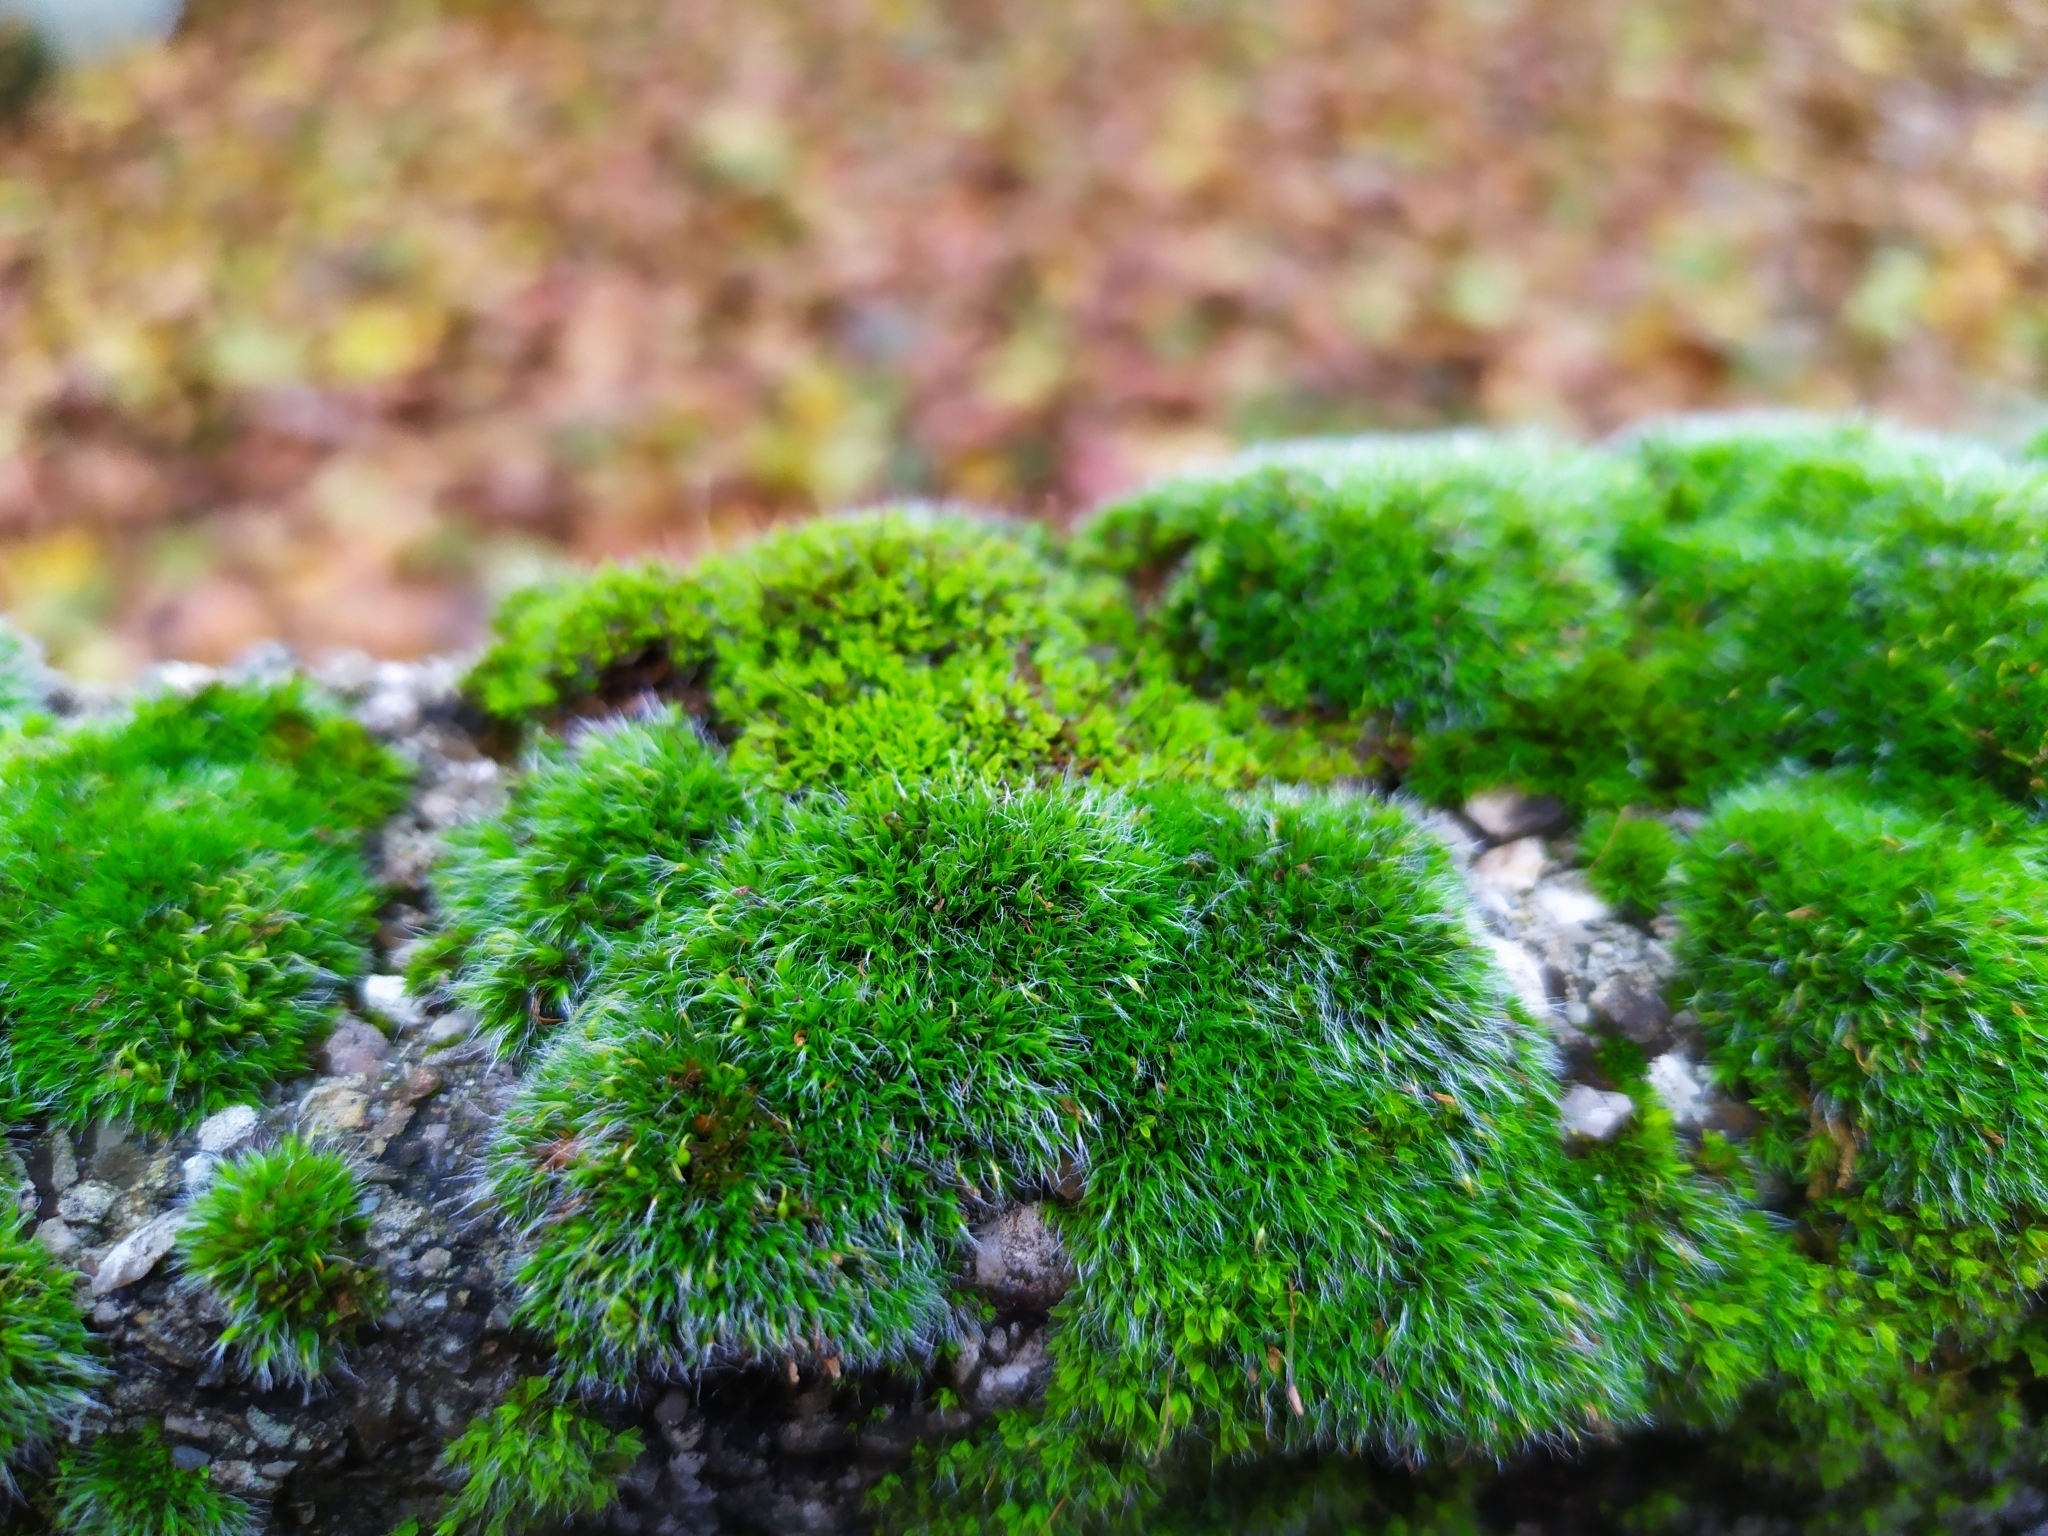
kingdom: Plantae
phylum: Bryophyta
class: Bryopsida
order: Grimmiales
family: Grimmiaceae
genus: Grimmia
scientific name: Grimmia pulvinata
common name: Grey-cushioned grimmia
